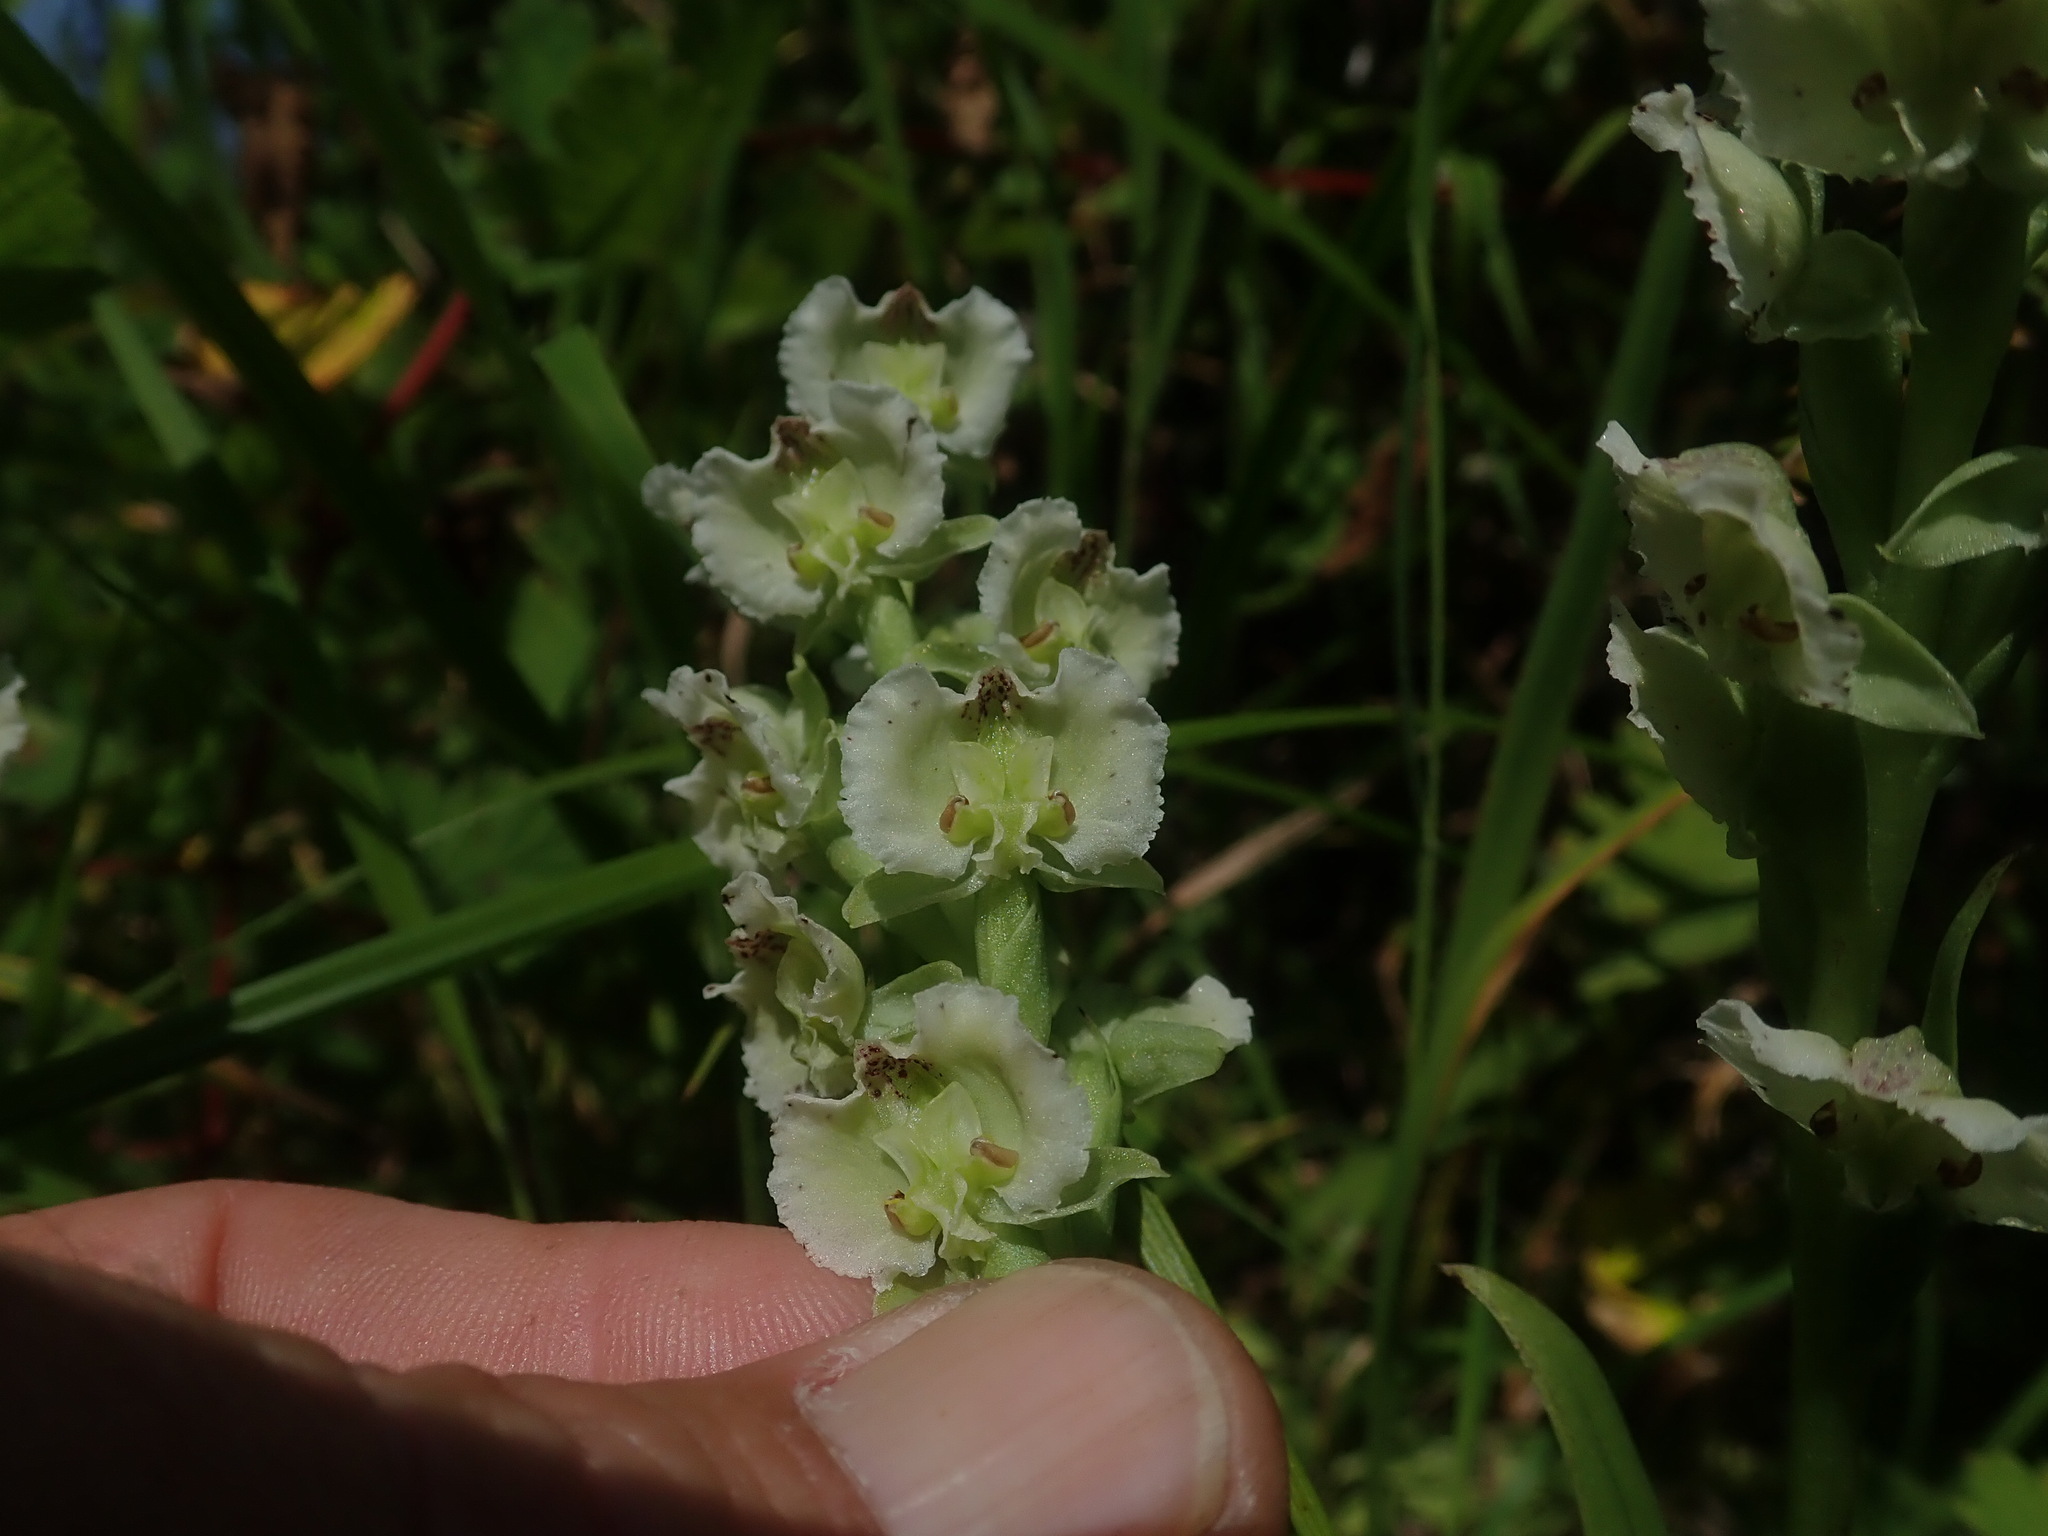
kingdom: Plantae
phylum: Tracheophyta
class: Liliopsida
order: Asparagales
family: Orchidaceae
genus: Pterygodium
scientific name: Pterygodium hastatum
